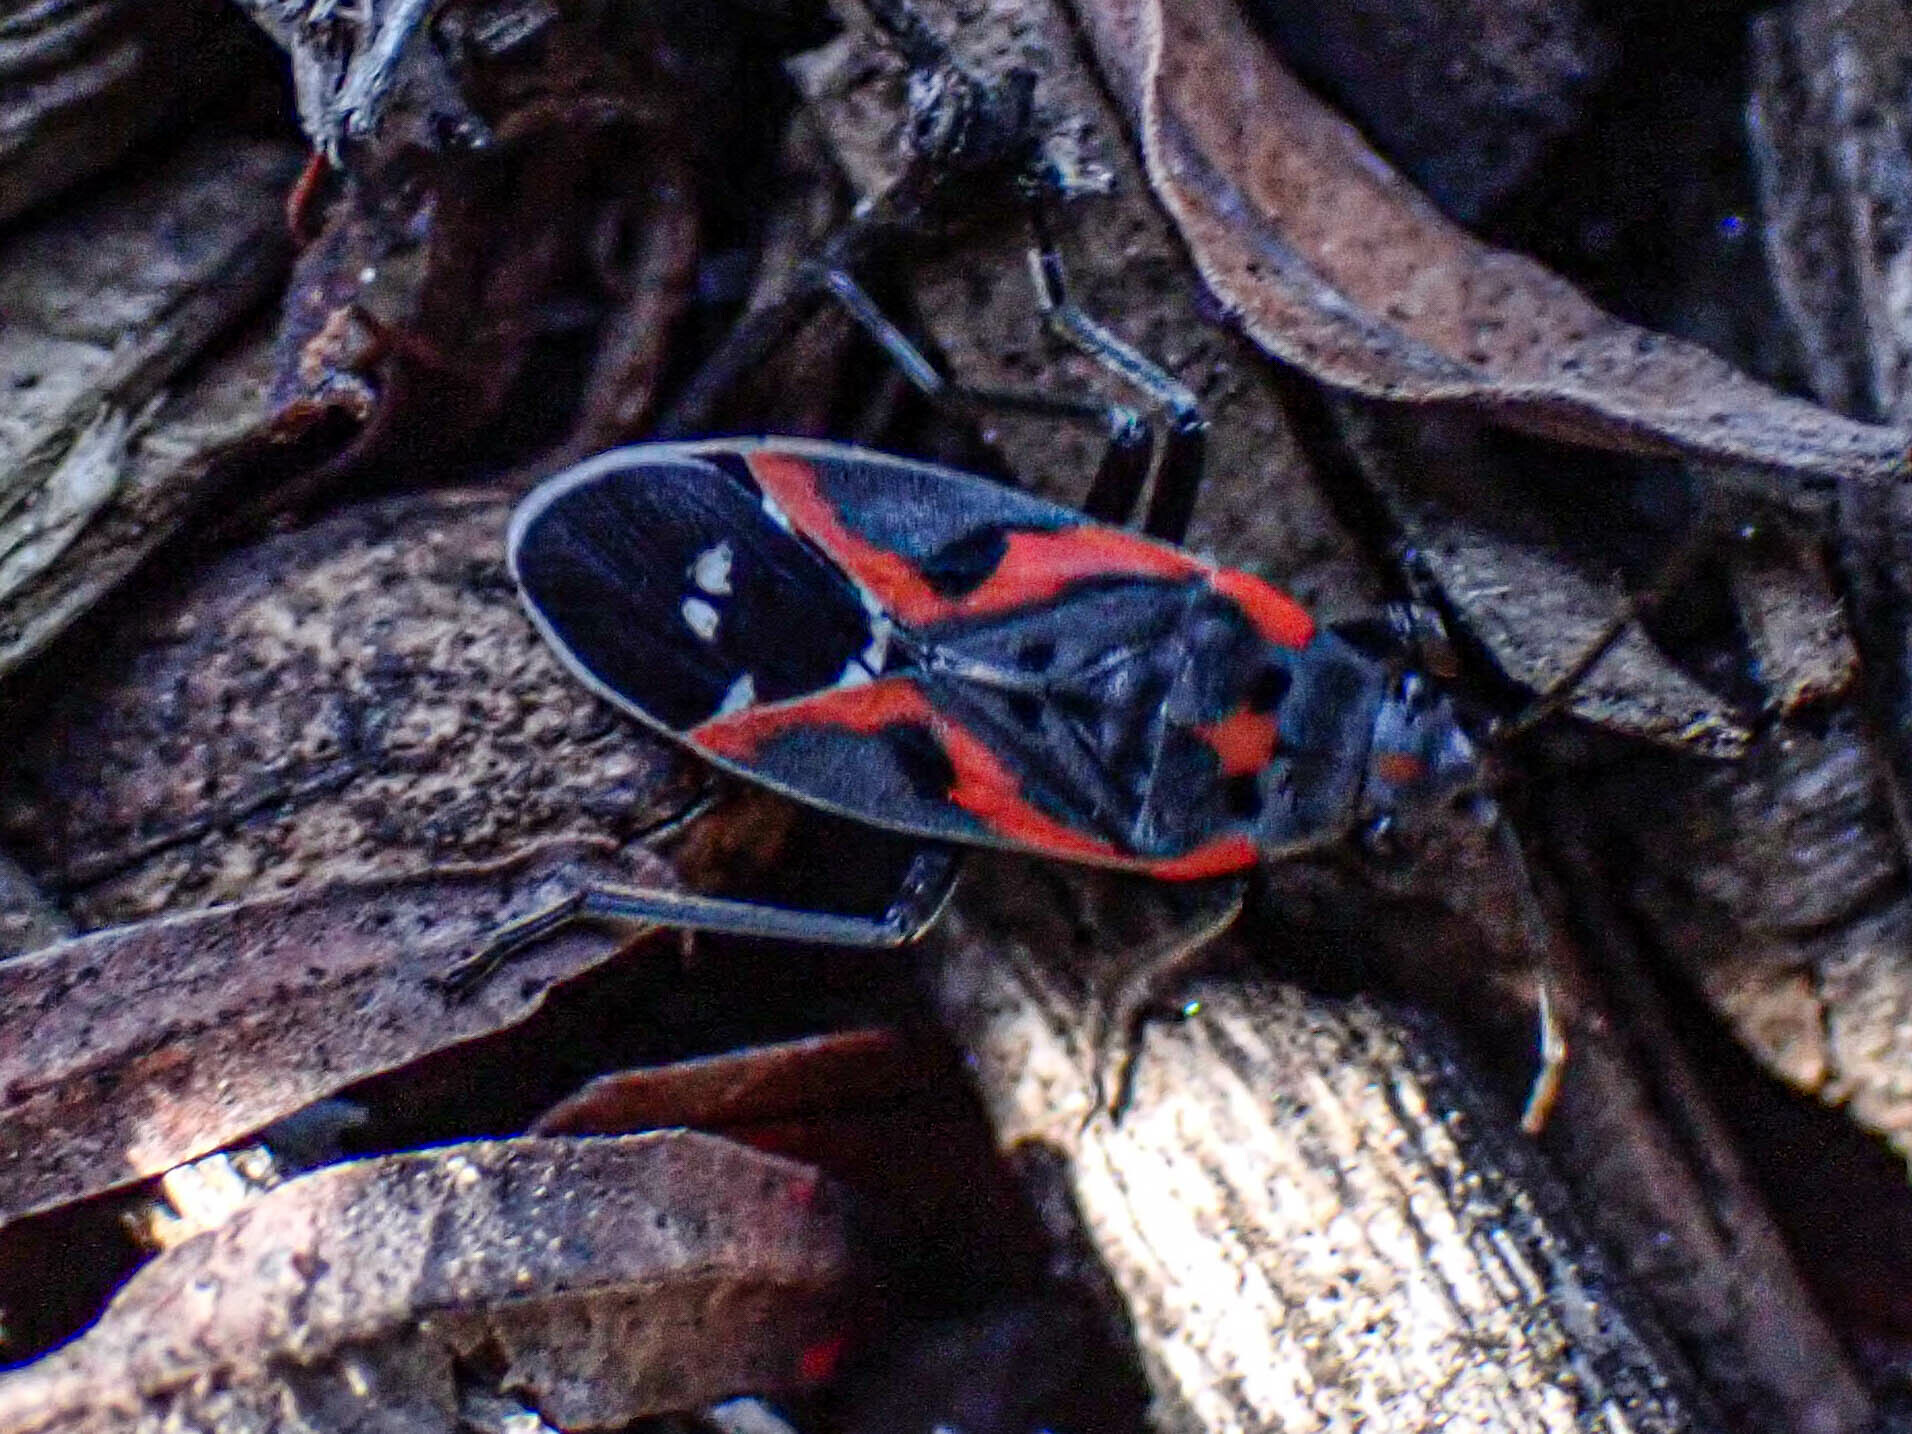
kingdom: Animalia
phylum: Arthropoda
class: Insecta
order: Hemiptera
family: Lygaeidae
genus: Lygaeus
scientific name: Lygaeus kalmii
